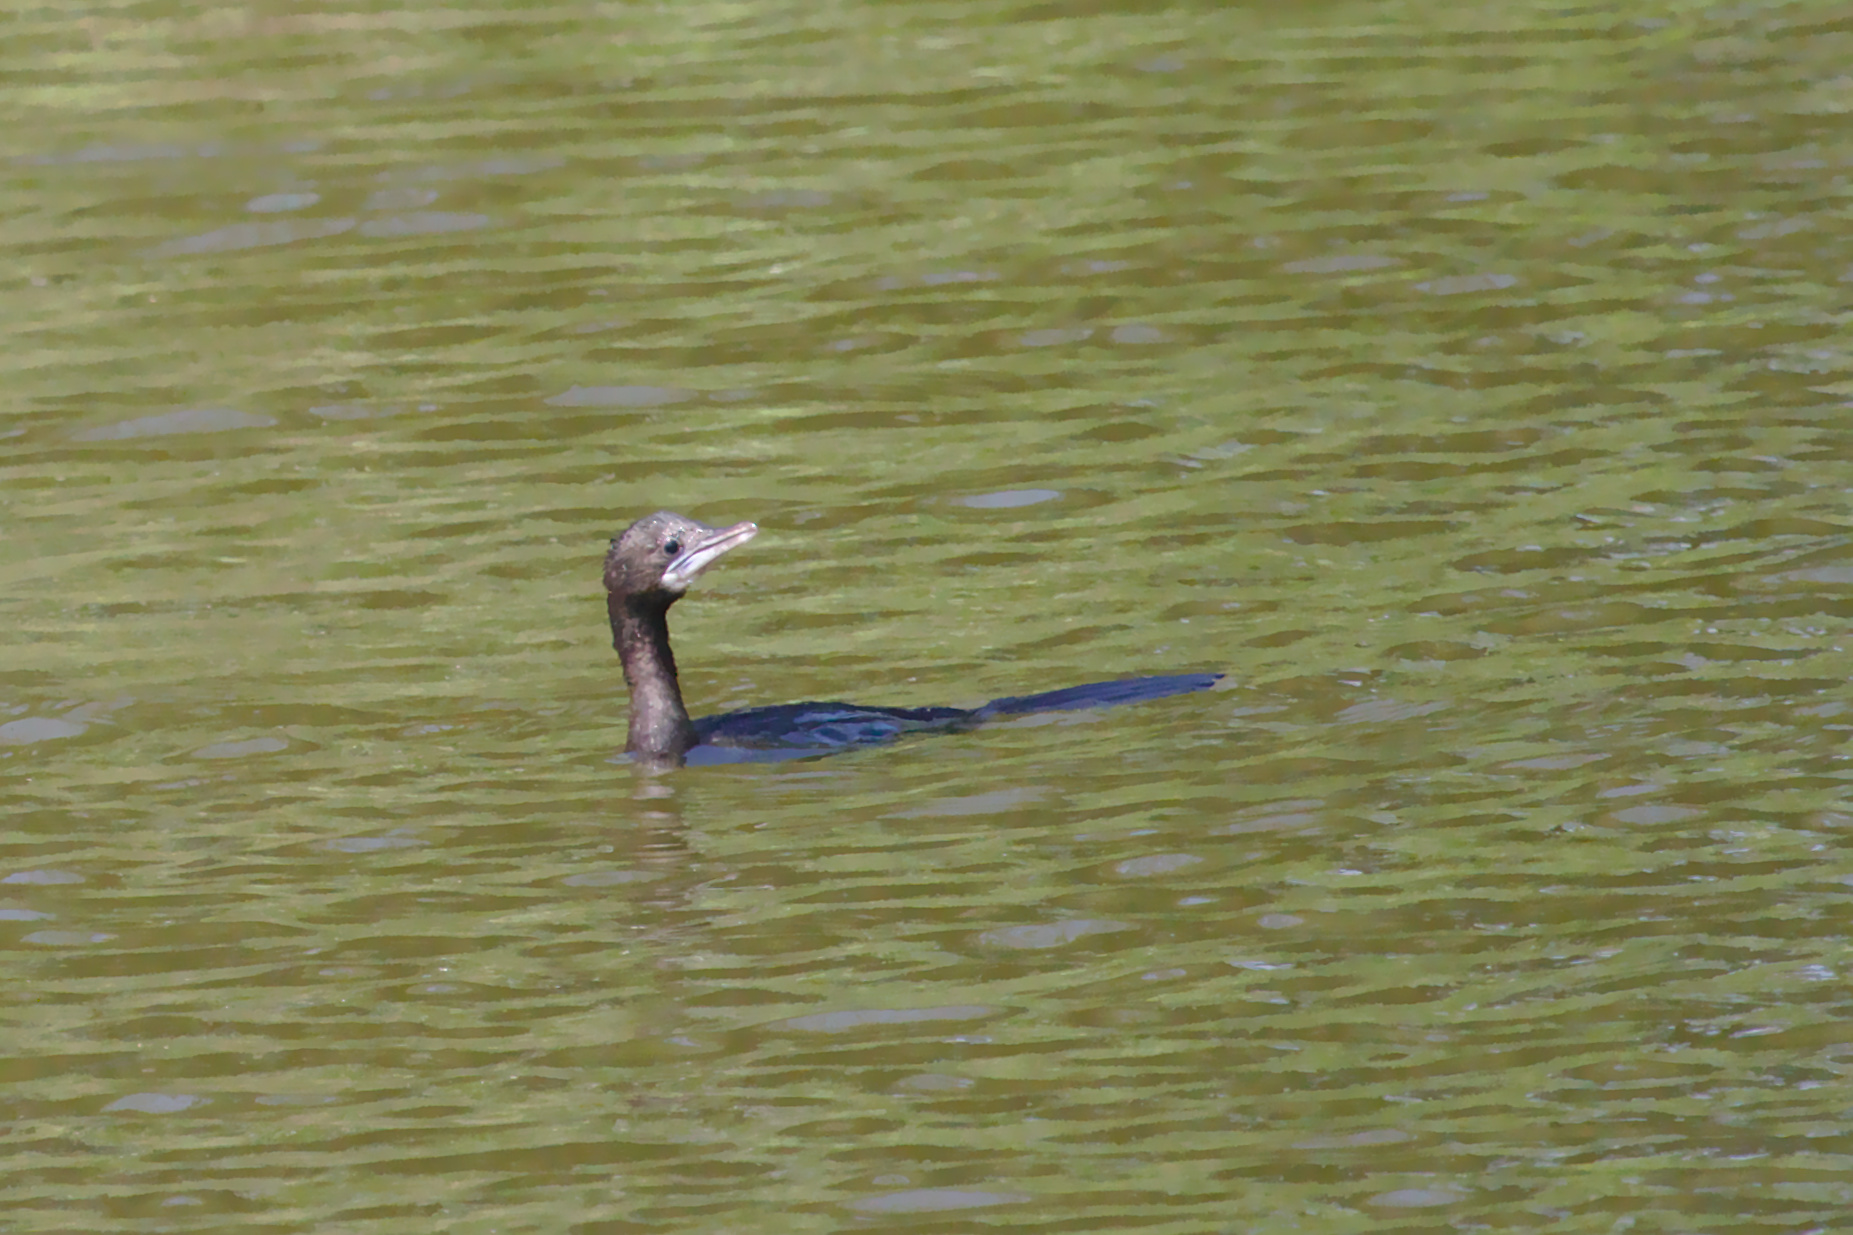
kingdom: Animalia
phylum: Chordata
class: Aves
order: Suliformes
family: Phalacrocoracidae
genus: Microcarbo
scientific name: Microcarbo niger
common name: Little cormorant
